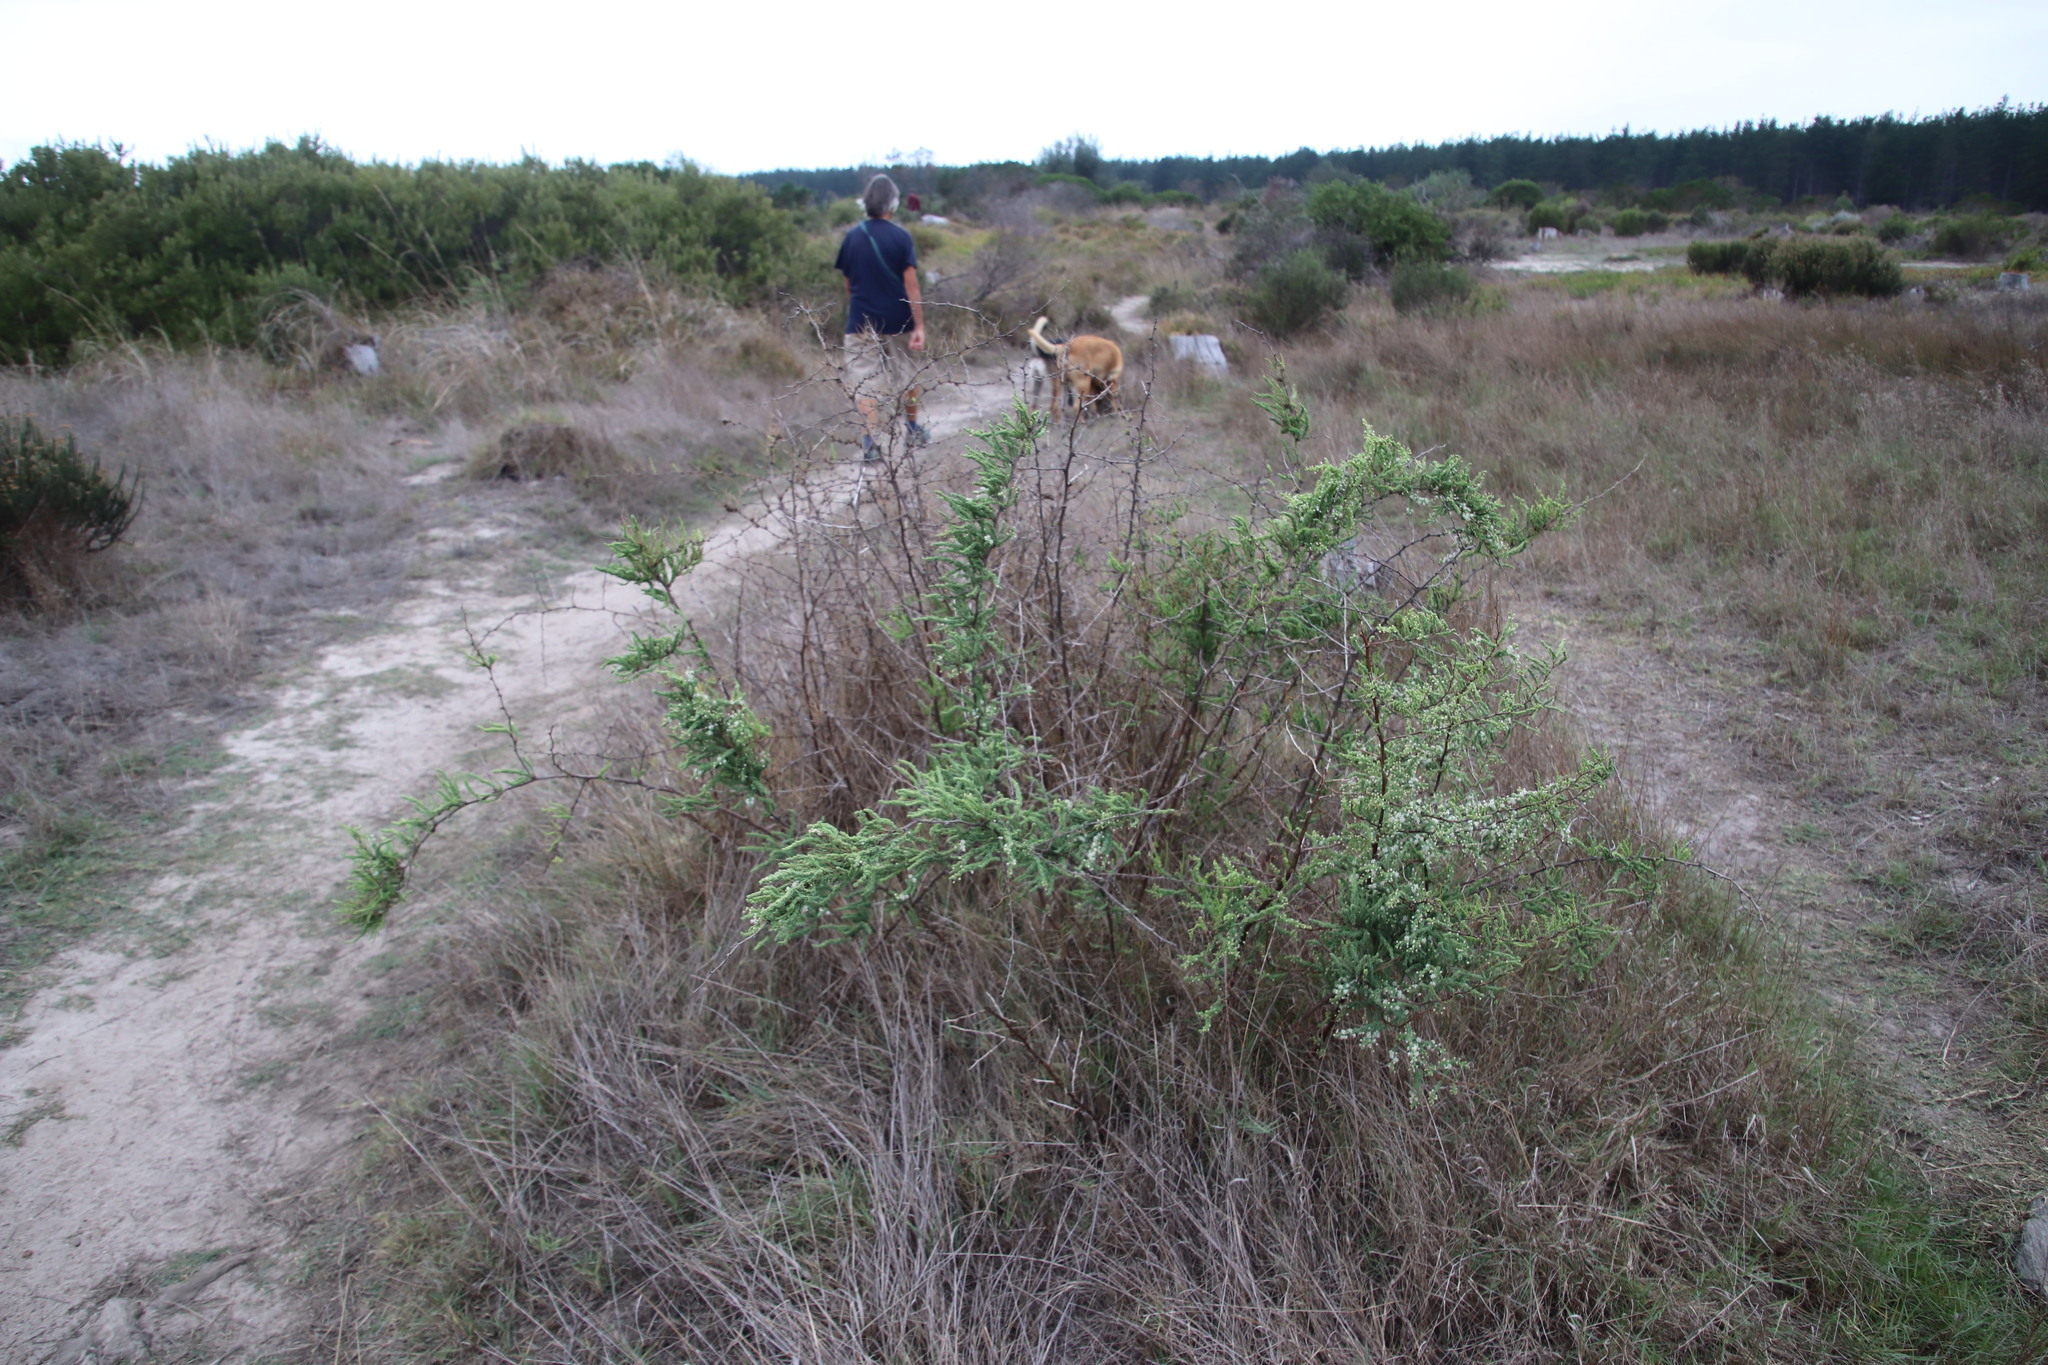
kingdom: Plantae
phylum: Tracheophyta
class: Liliopsida
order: Asparagales
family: Asparagaceae
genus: Asparagus
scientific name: Asparagus rubicundus
